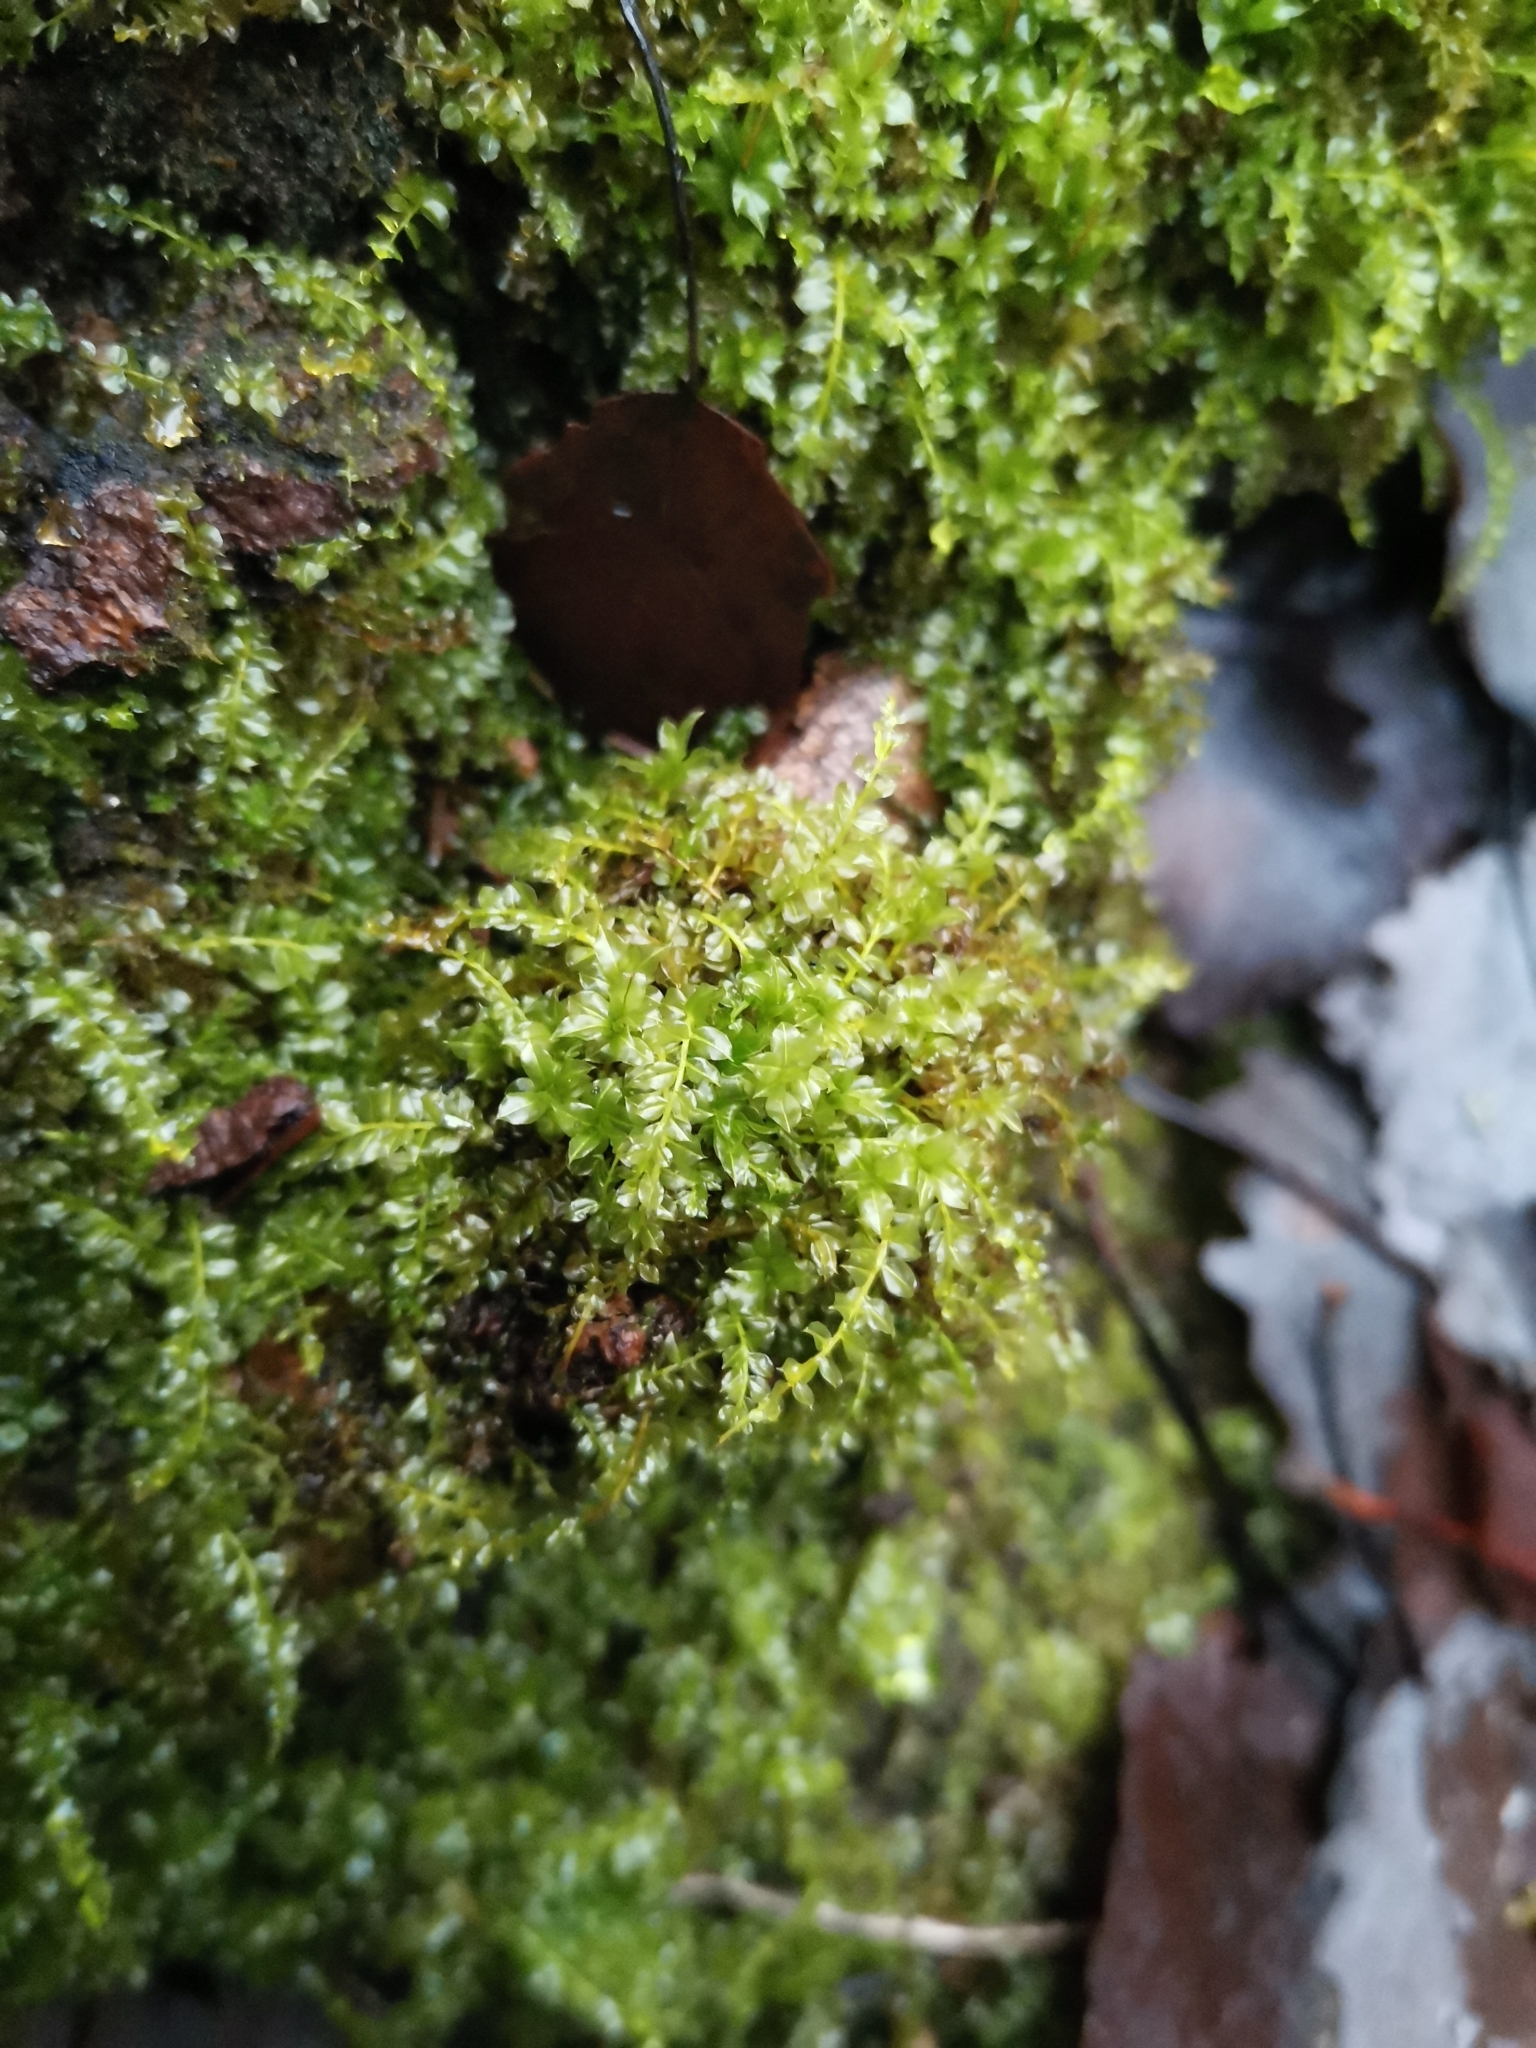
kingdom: Plantae
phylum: Bryophyta
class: Bryopsida
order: Bryales
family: Mniaceae
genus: Plagiomnium
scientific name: Plagiomnium cuspidatum
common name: Woodsy leafy moss
